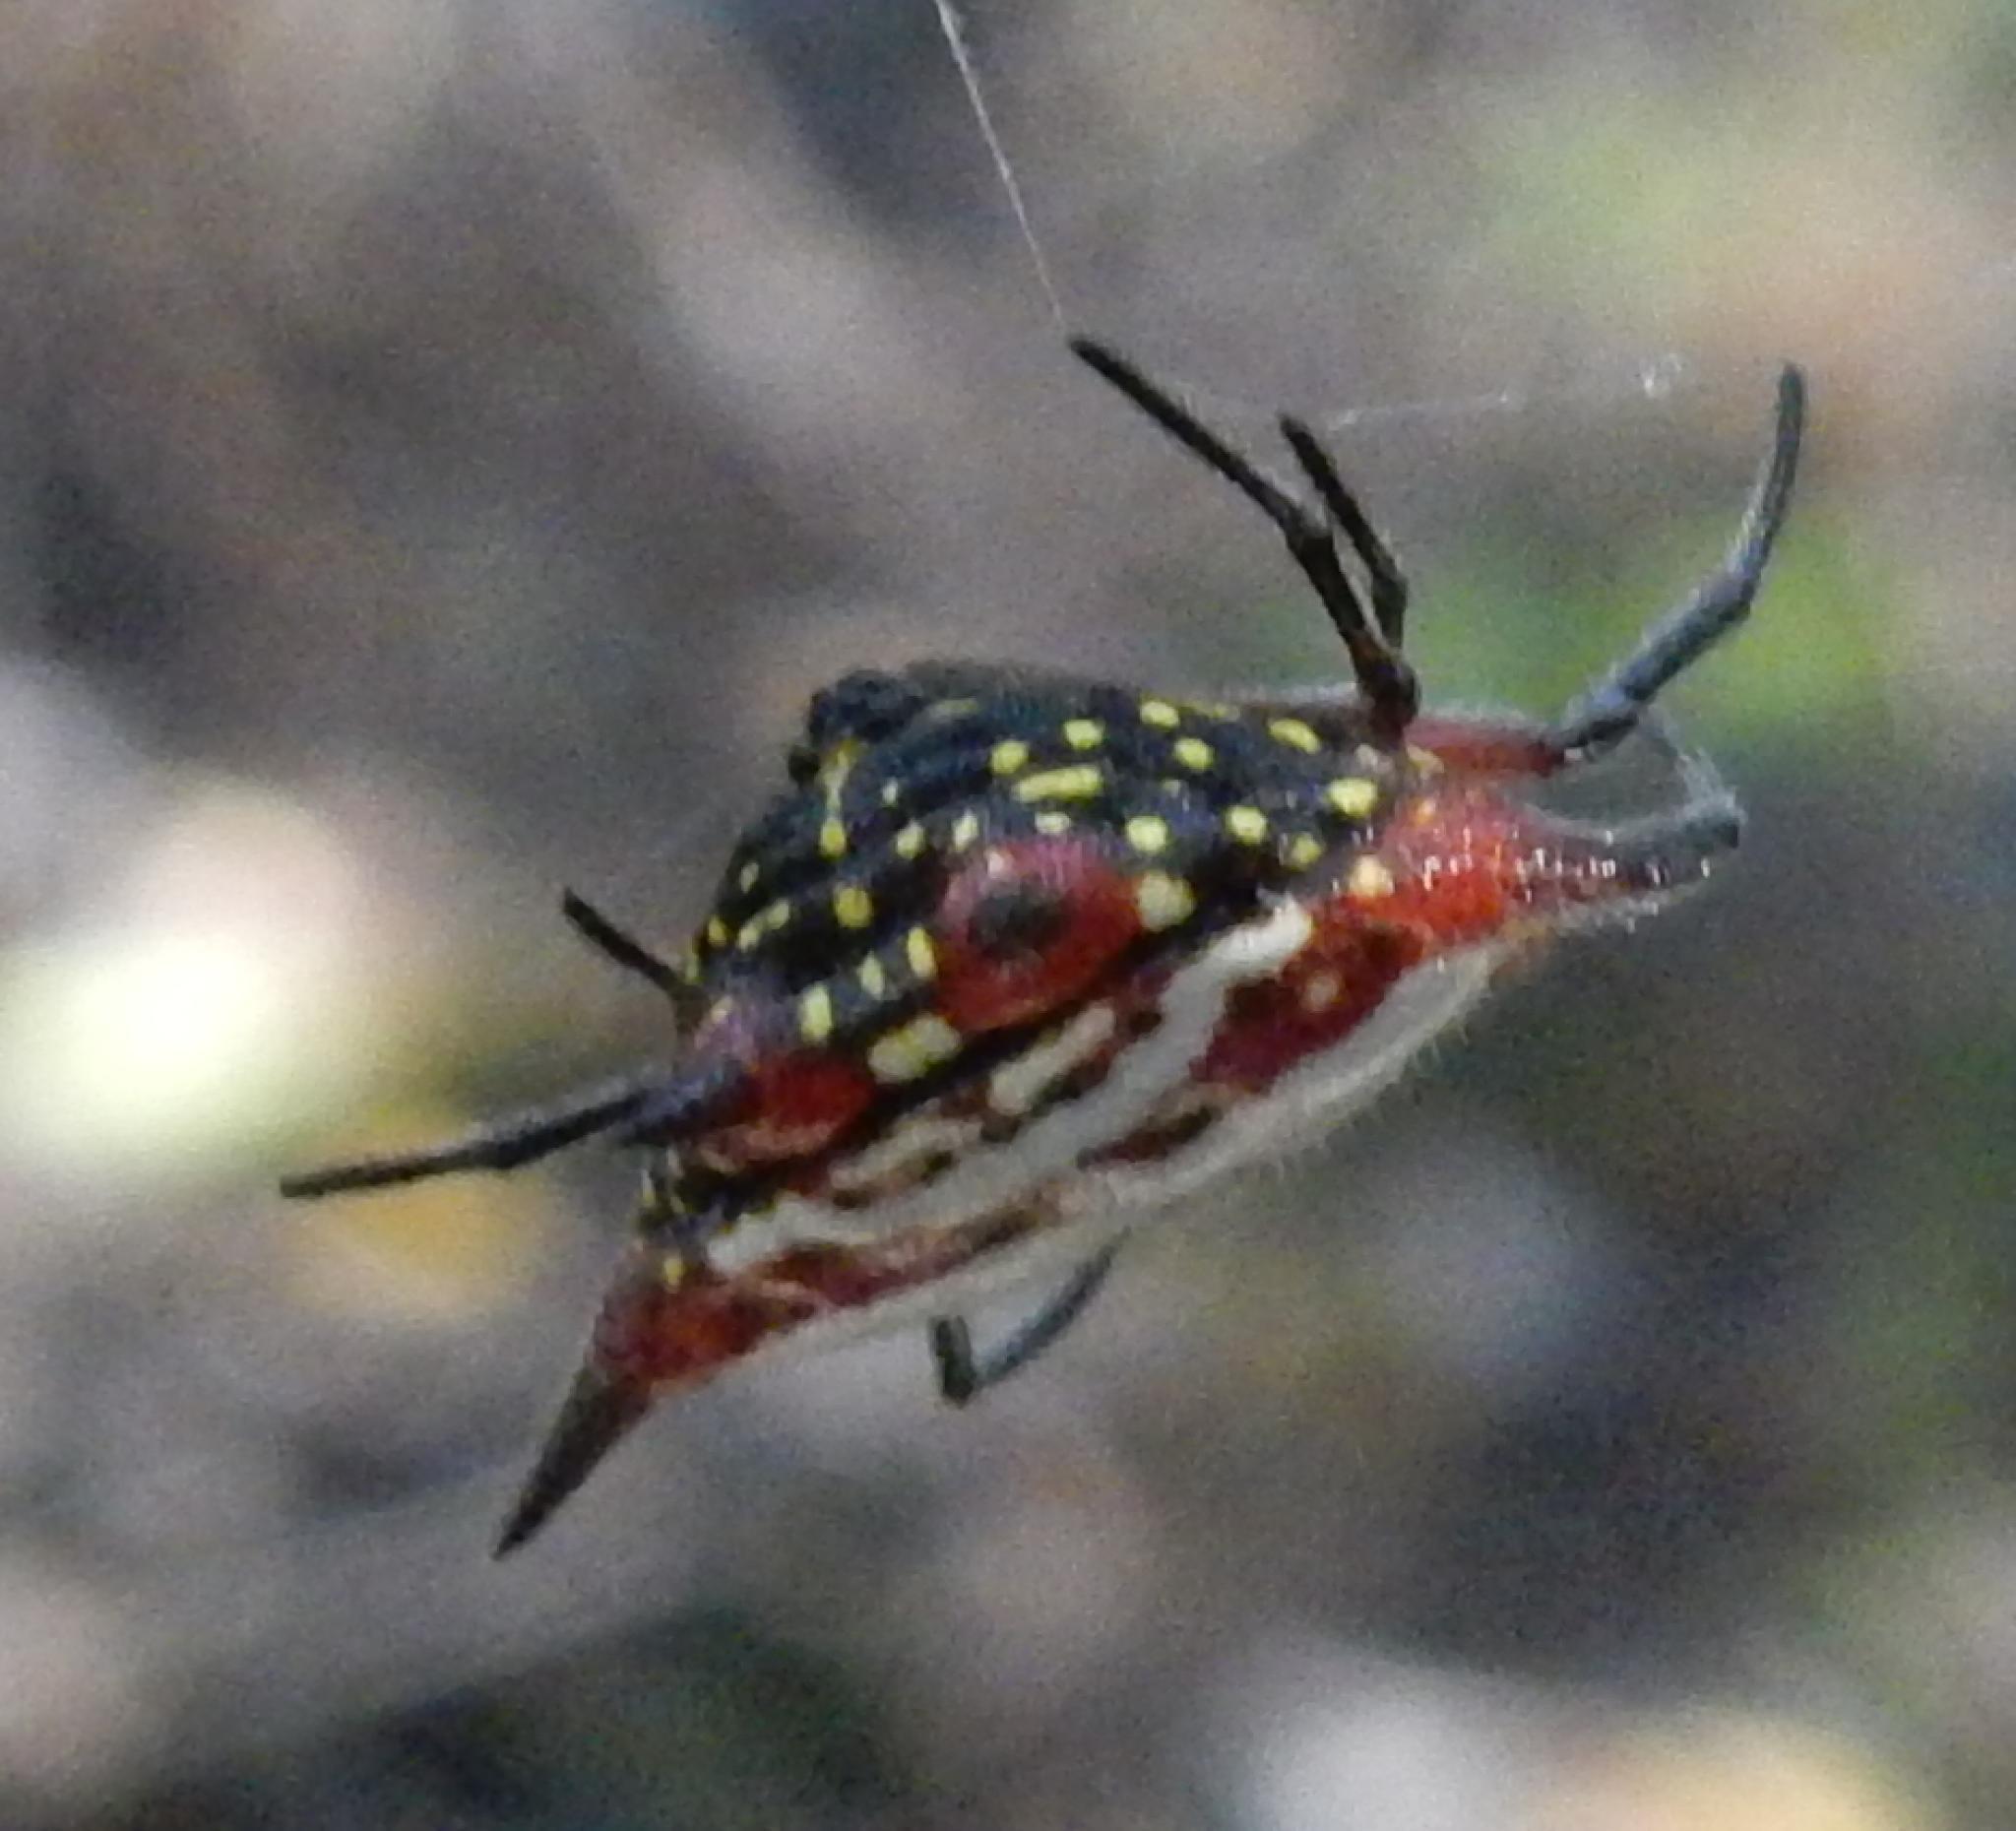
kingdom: Animalia
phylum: Arthropoda
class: Arachnida
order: Araneae
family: Araneidae
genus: Gasteracantha
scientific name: Gasteracantha sanguinolenta
